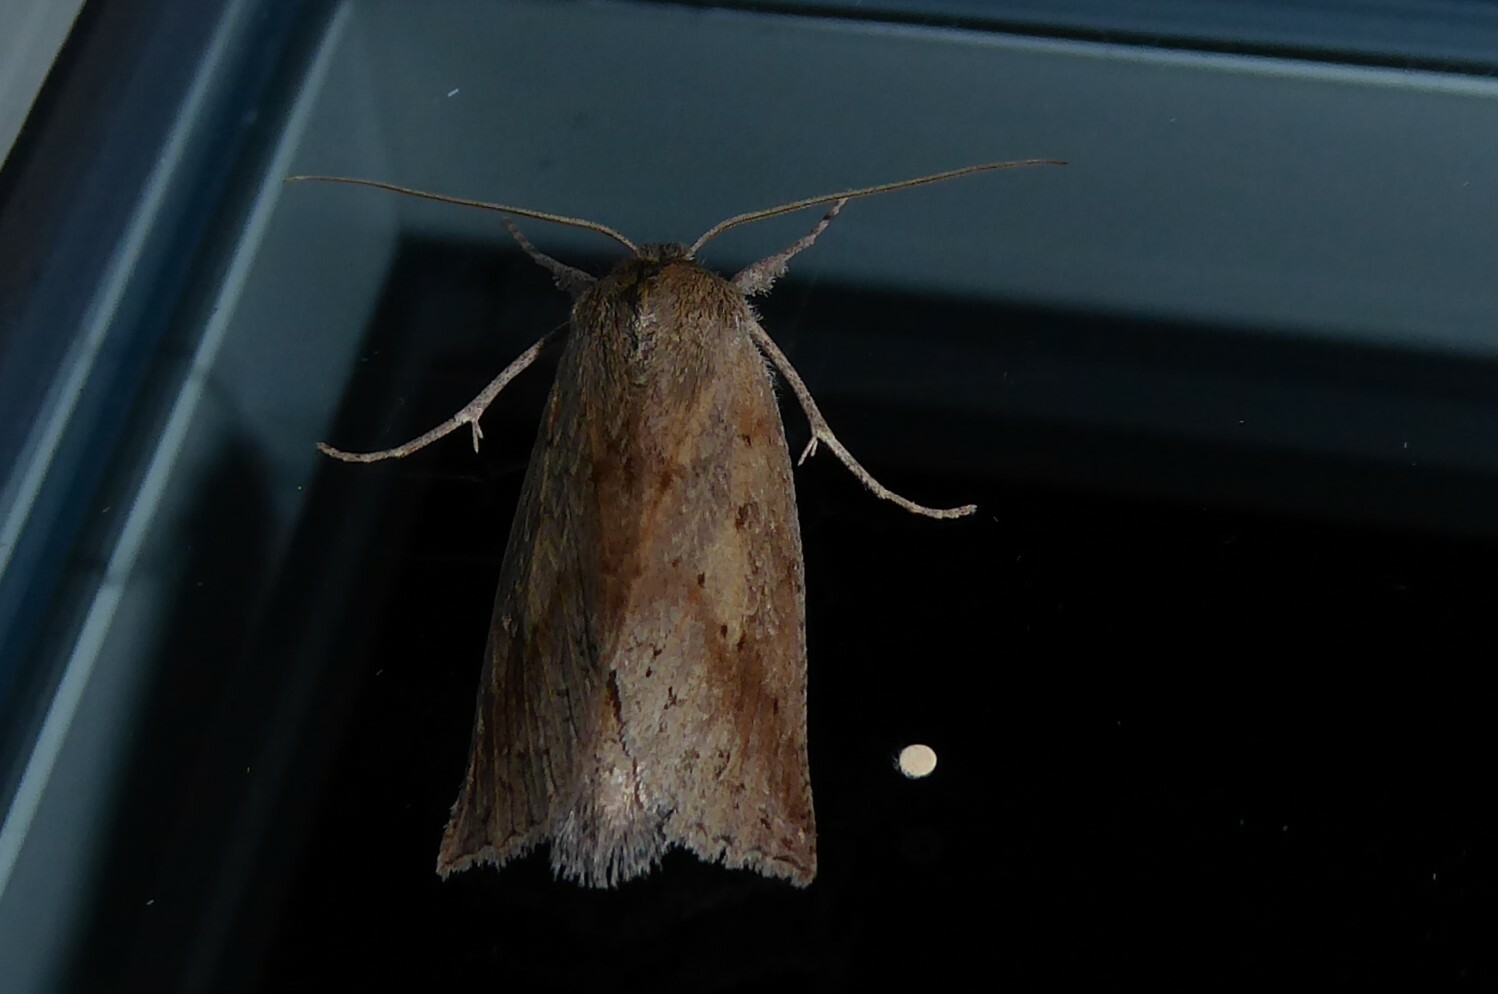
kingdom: Animalia
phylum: Arthropoda
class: Insecta
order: Lepidoptera
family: Geometridae
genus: Declana
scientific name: Declana leptomera
